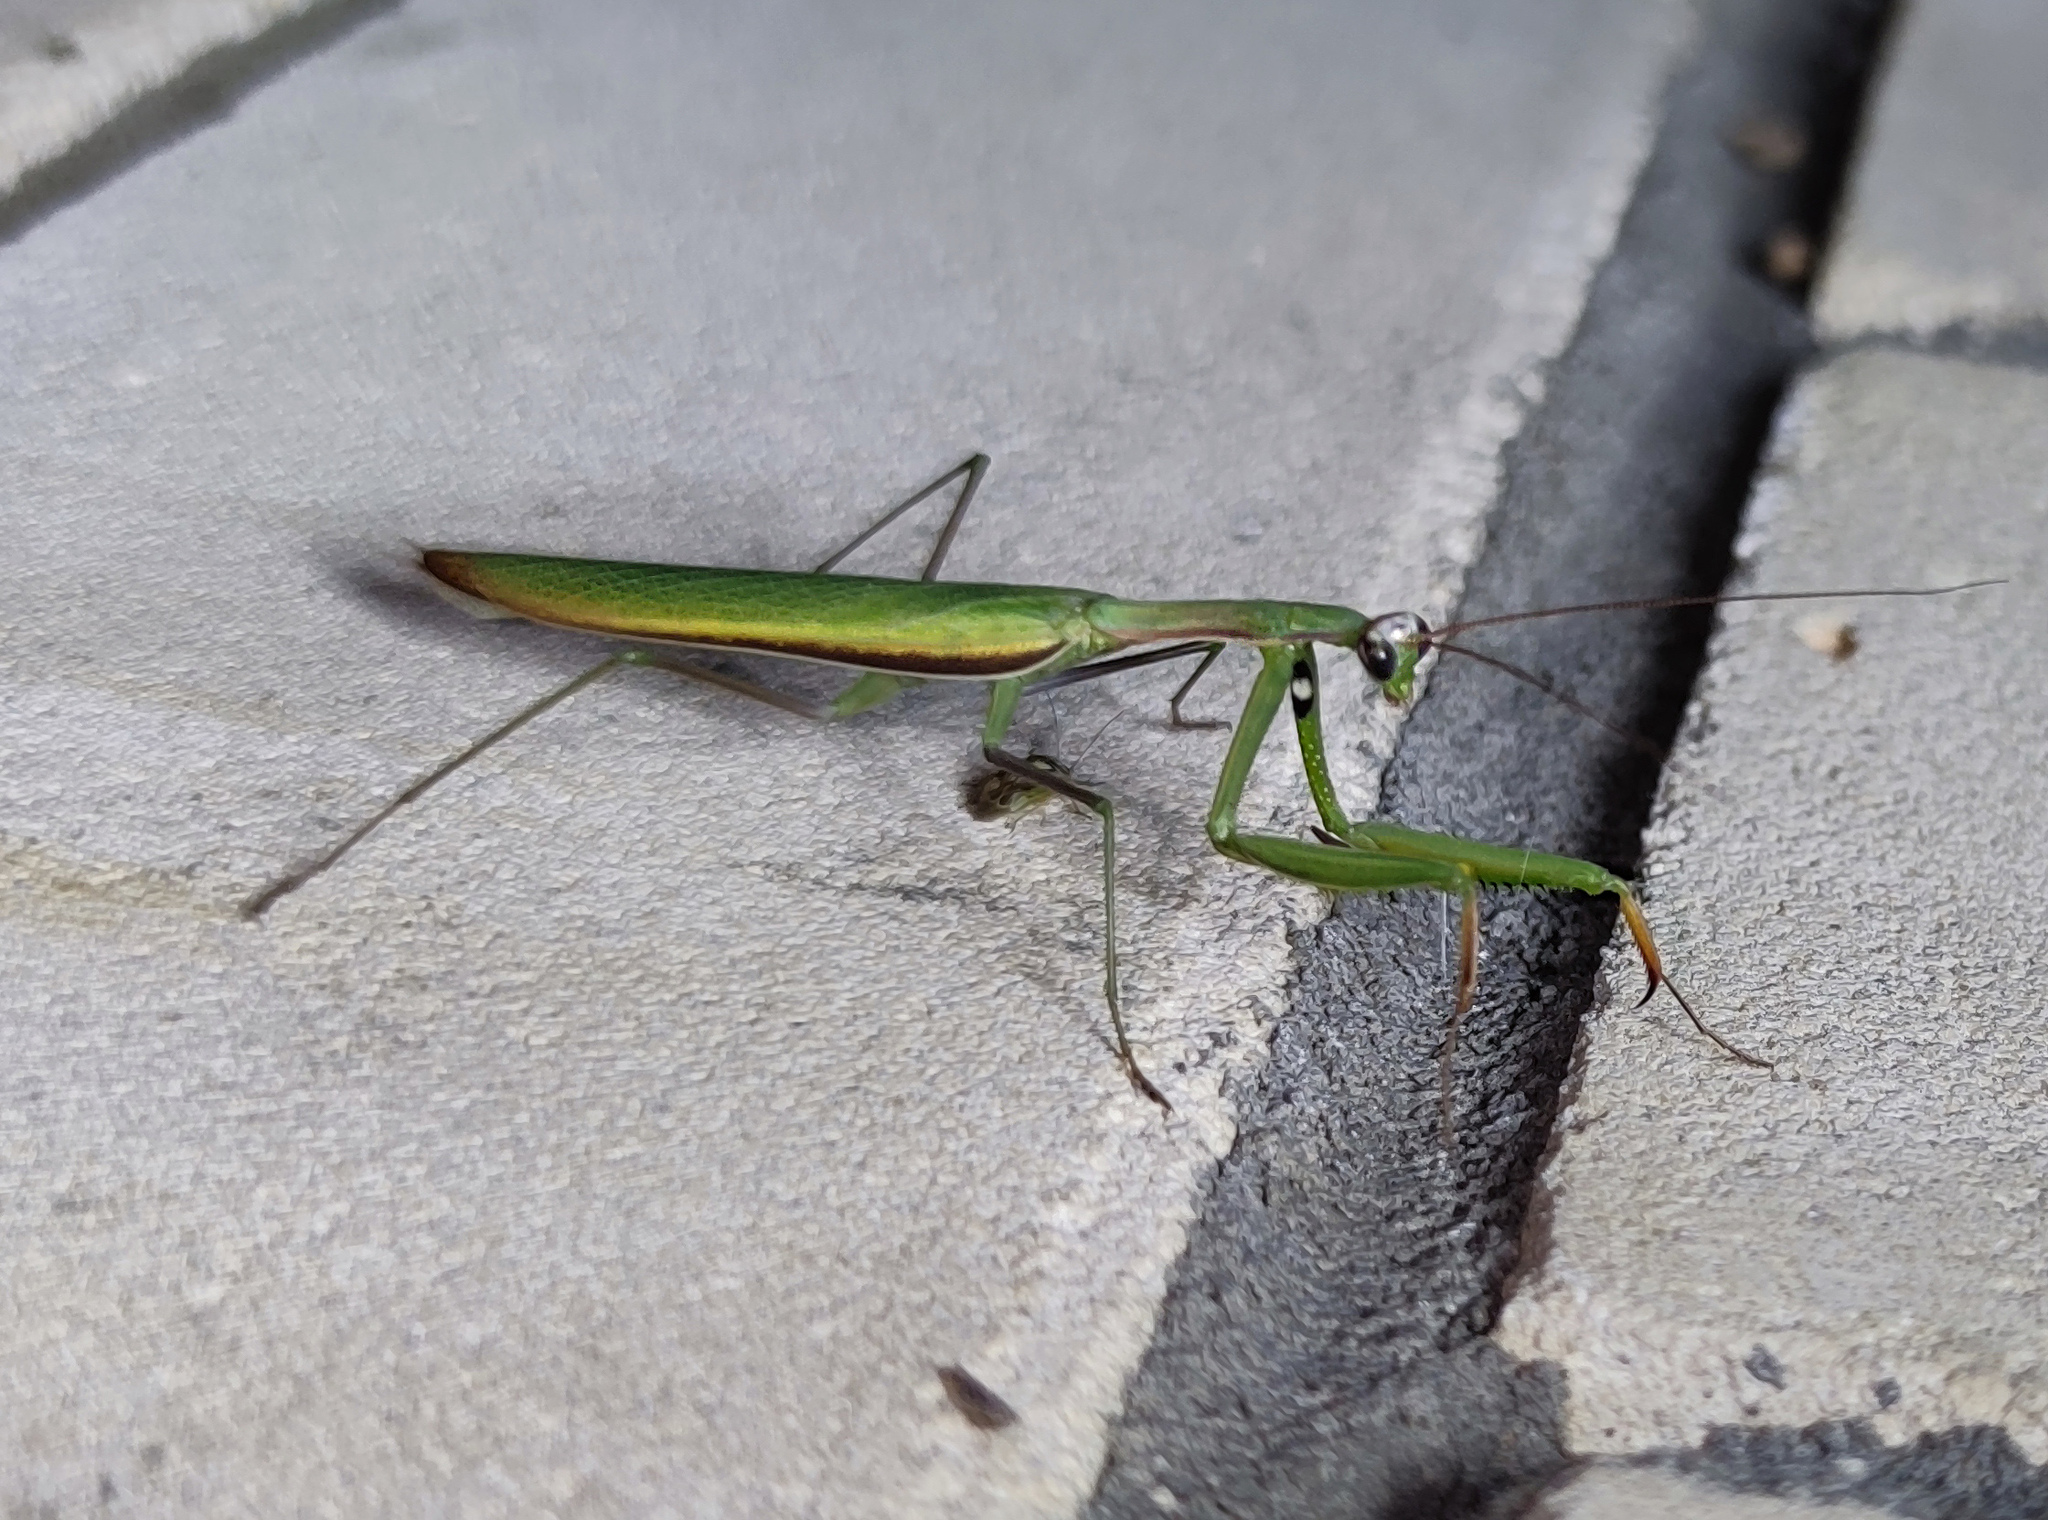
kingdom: Animalia
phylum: Arthropoda
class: Insecta
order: Mantodea
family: Mantidae
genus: Mantis
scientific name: Mantis religiosa
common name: Praying mantis
